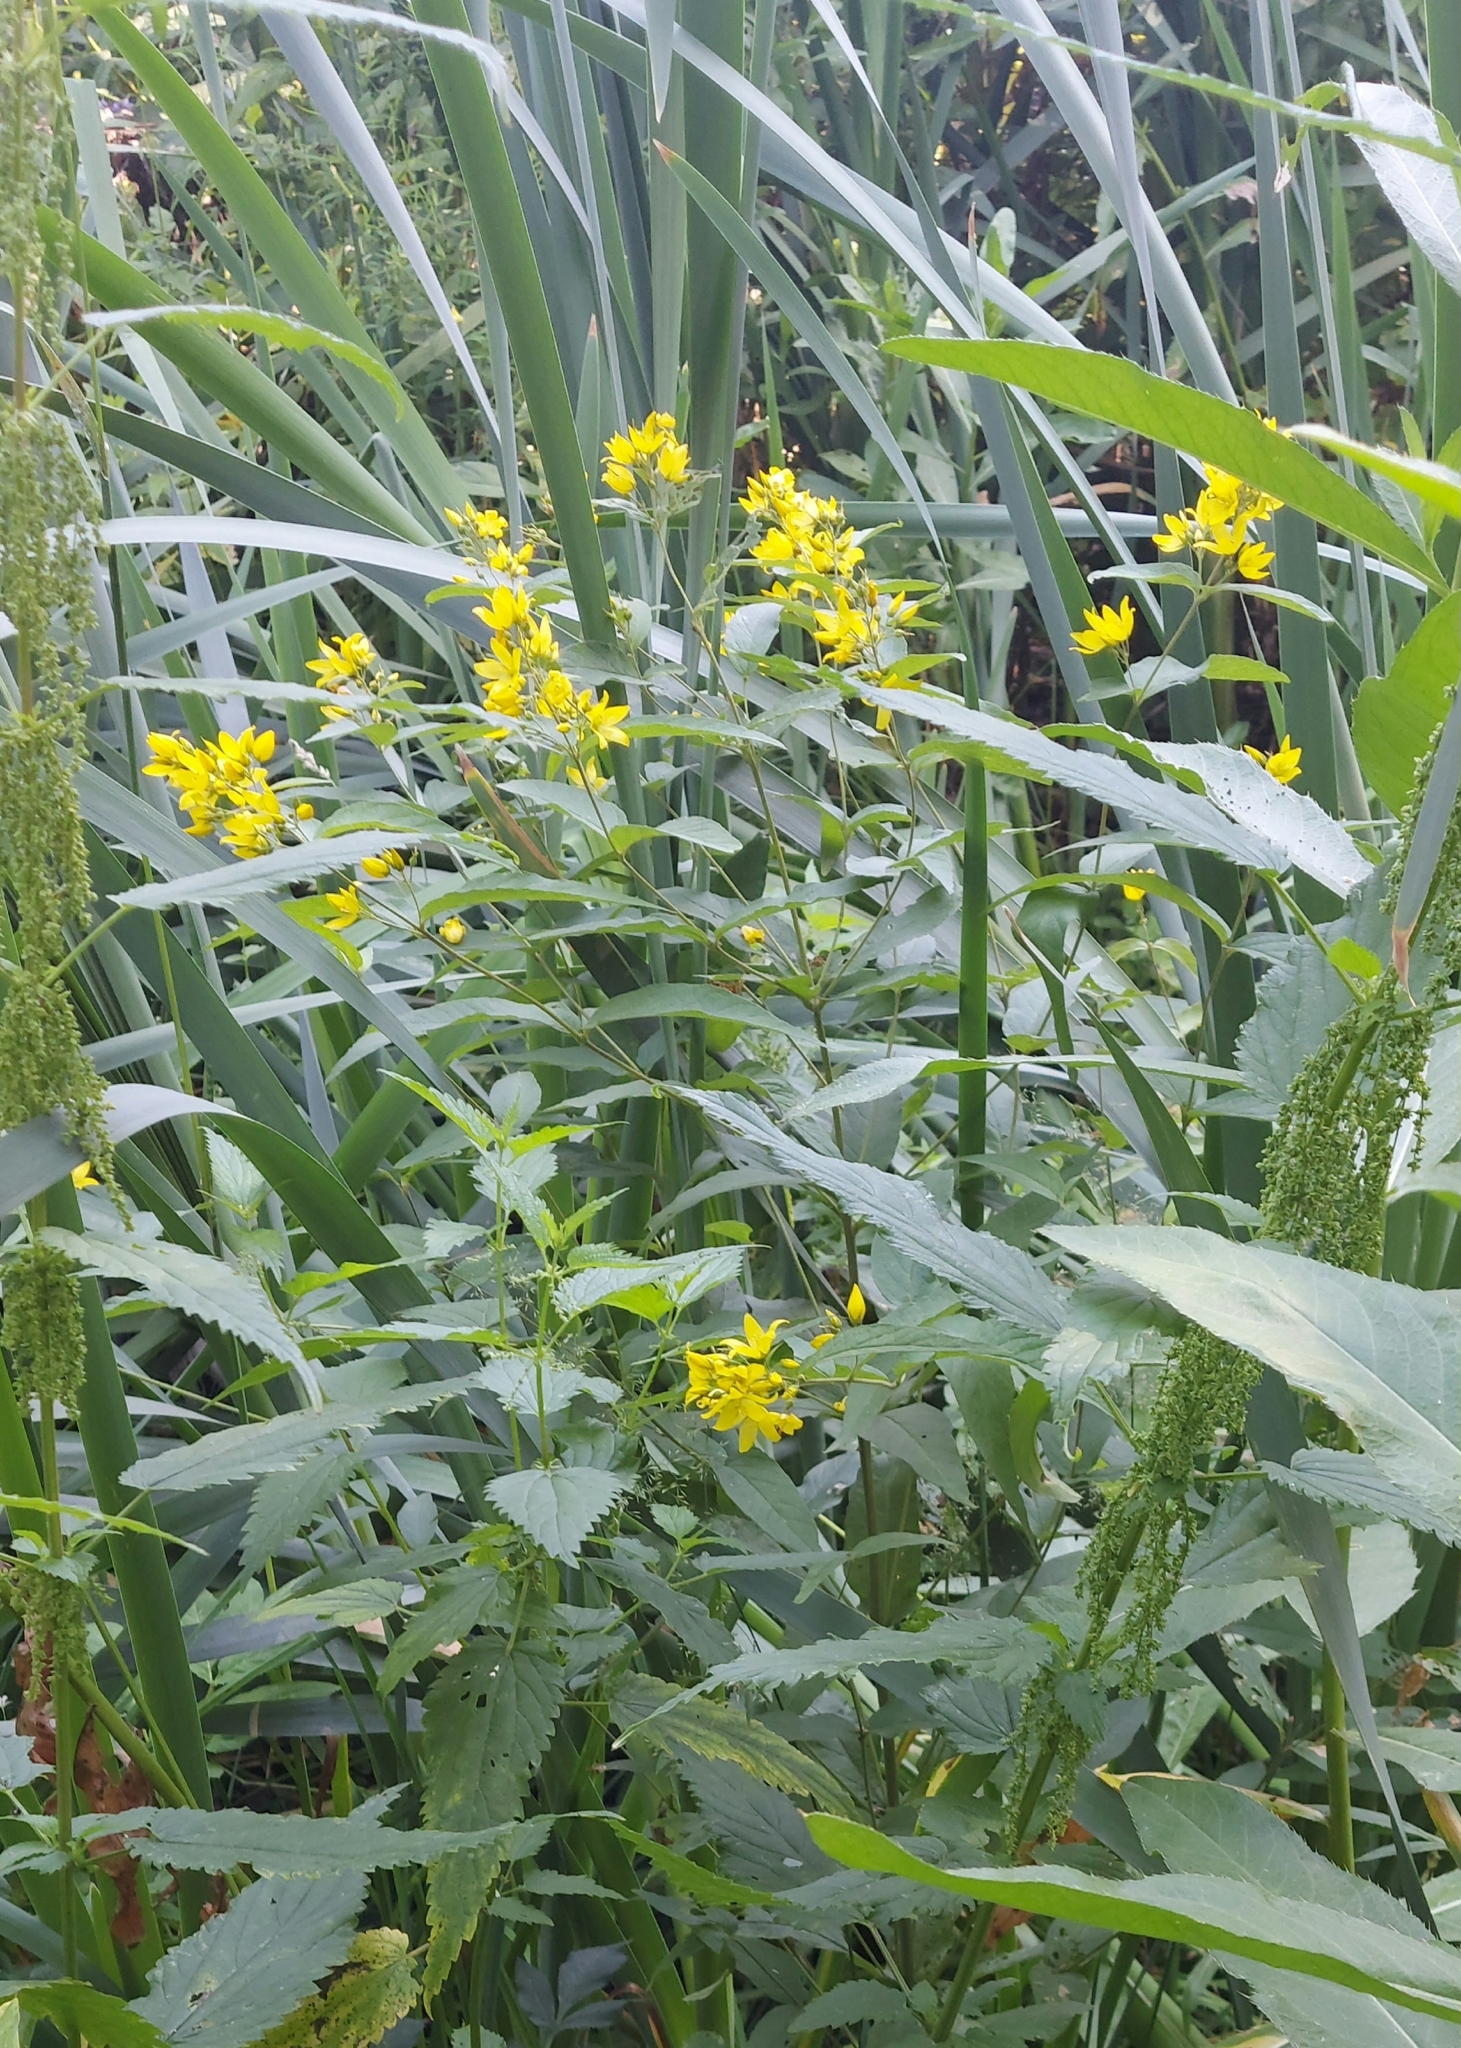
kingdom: Plantae
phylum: Tracheophyta
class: Magnoliopsida
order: Ericales
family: Primulaceae
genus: Lysimachia
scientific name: Lysimachia thyrsiflora
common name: Tufted loosestrife
